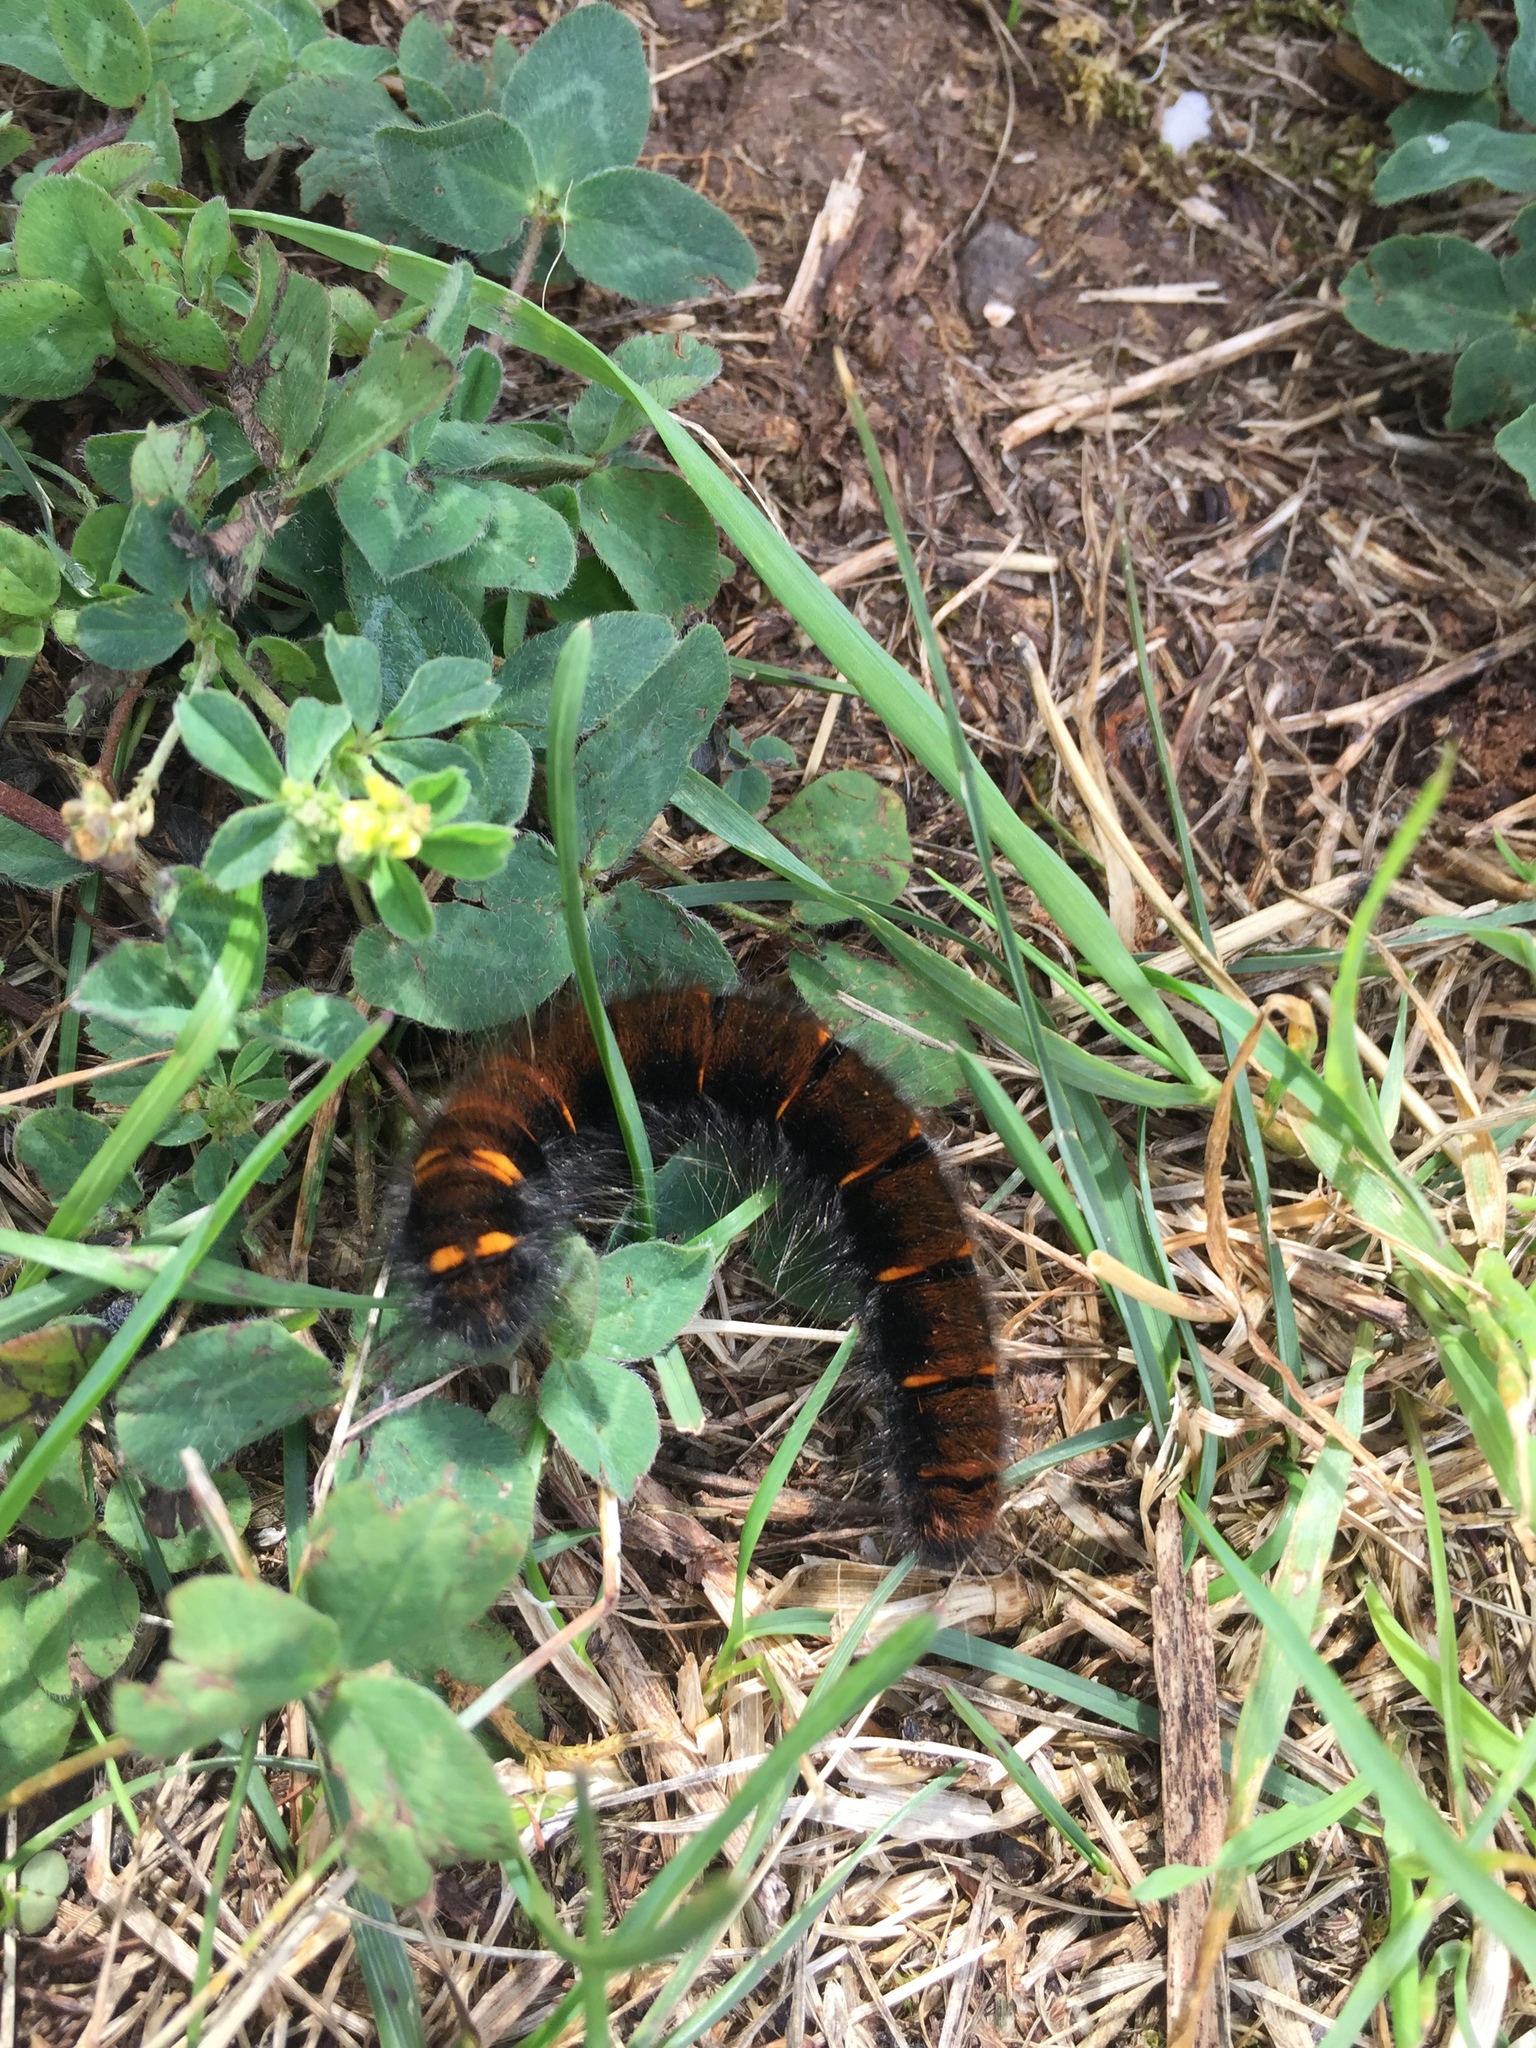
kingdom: Animalia
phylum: Arthropoda
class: Insecta
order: Lepidoptera
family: Lasiocampidae
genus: Macrothylacia
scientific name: Macrothylacia rubi
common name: Fox moth
